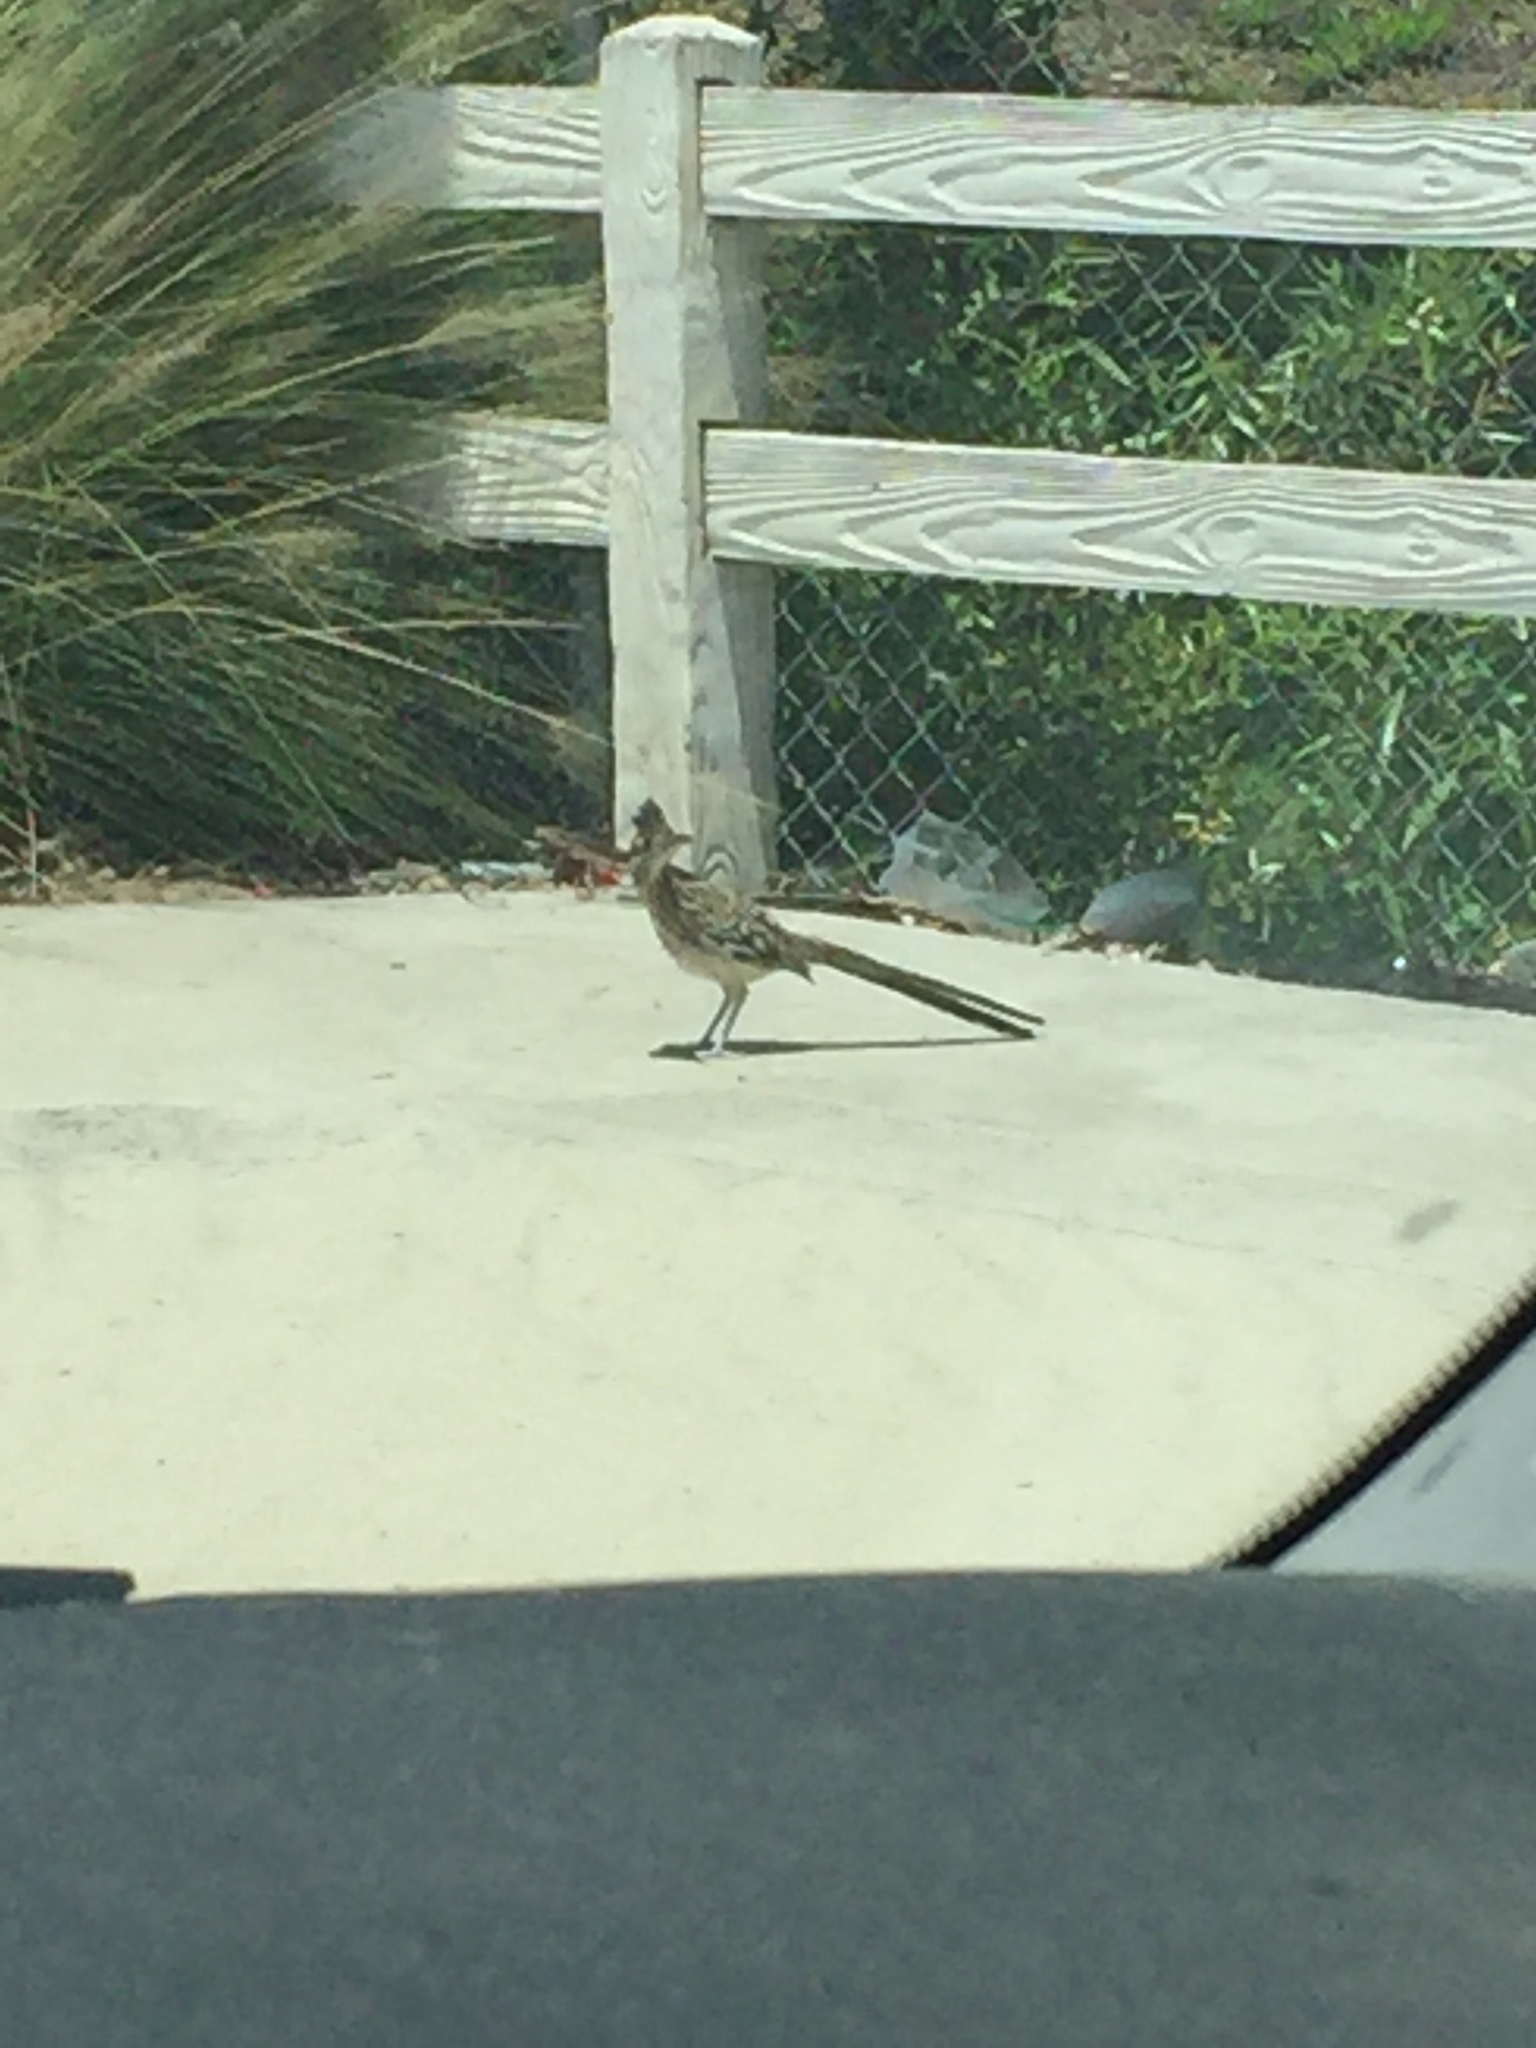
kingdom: Animalia
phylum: Chordata
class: Aves
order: Cuculiformes
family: Cuculidae
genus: Geococcyx
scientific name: Geococcyx californianus
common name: Greater roadrunner
